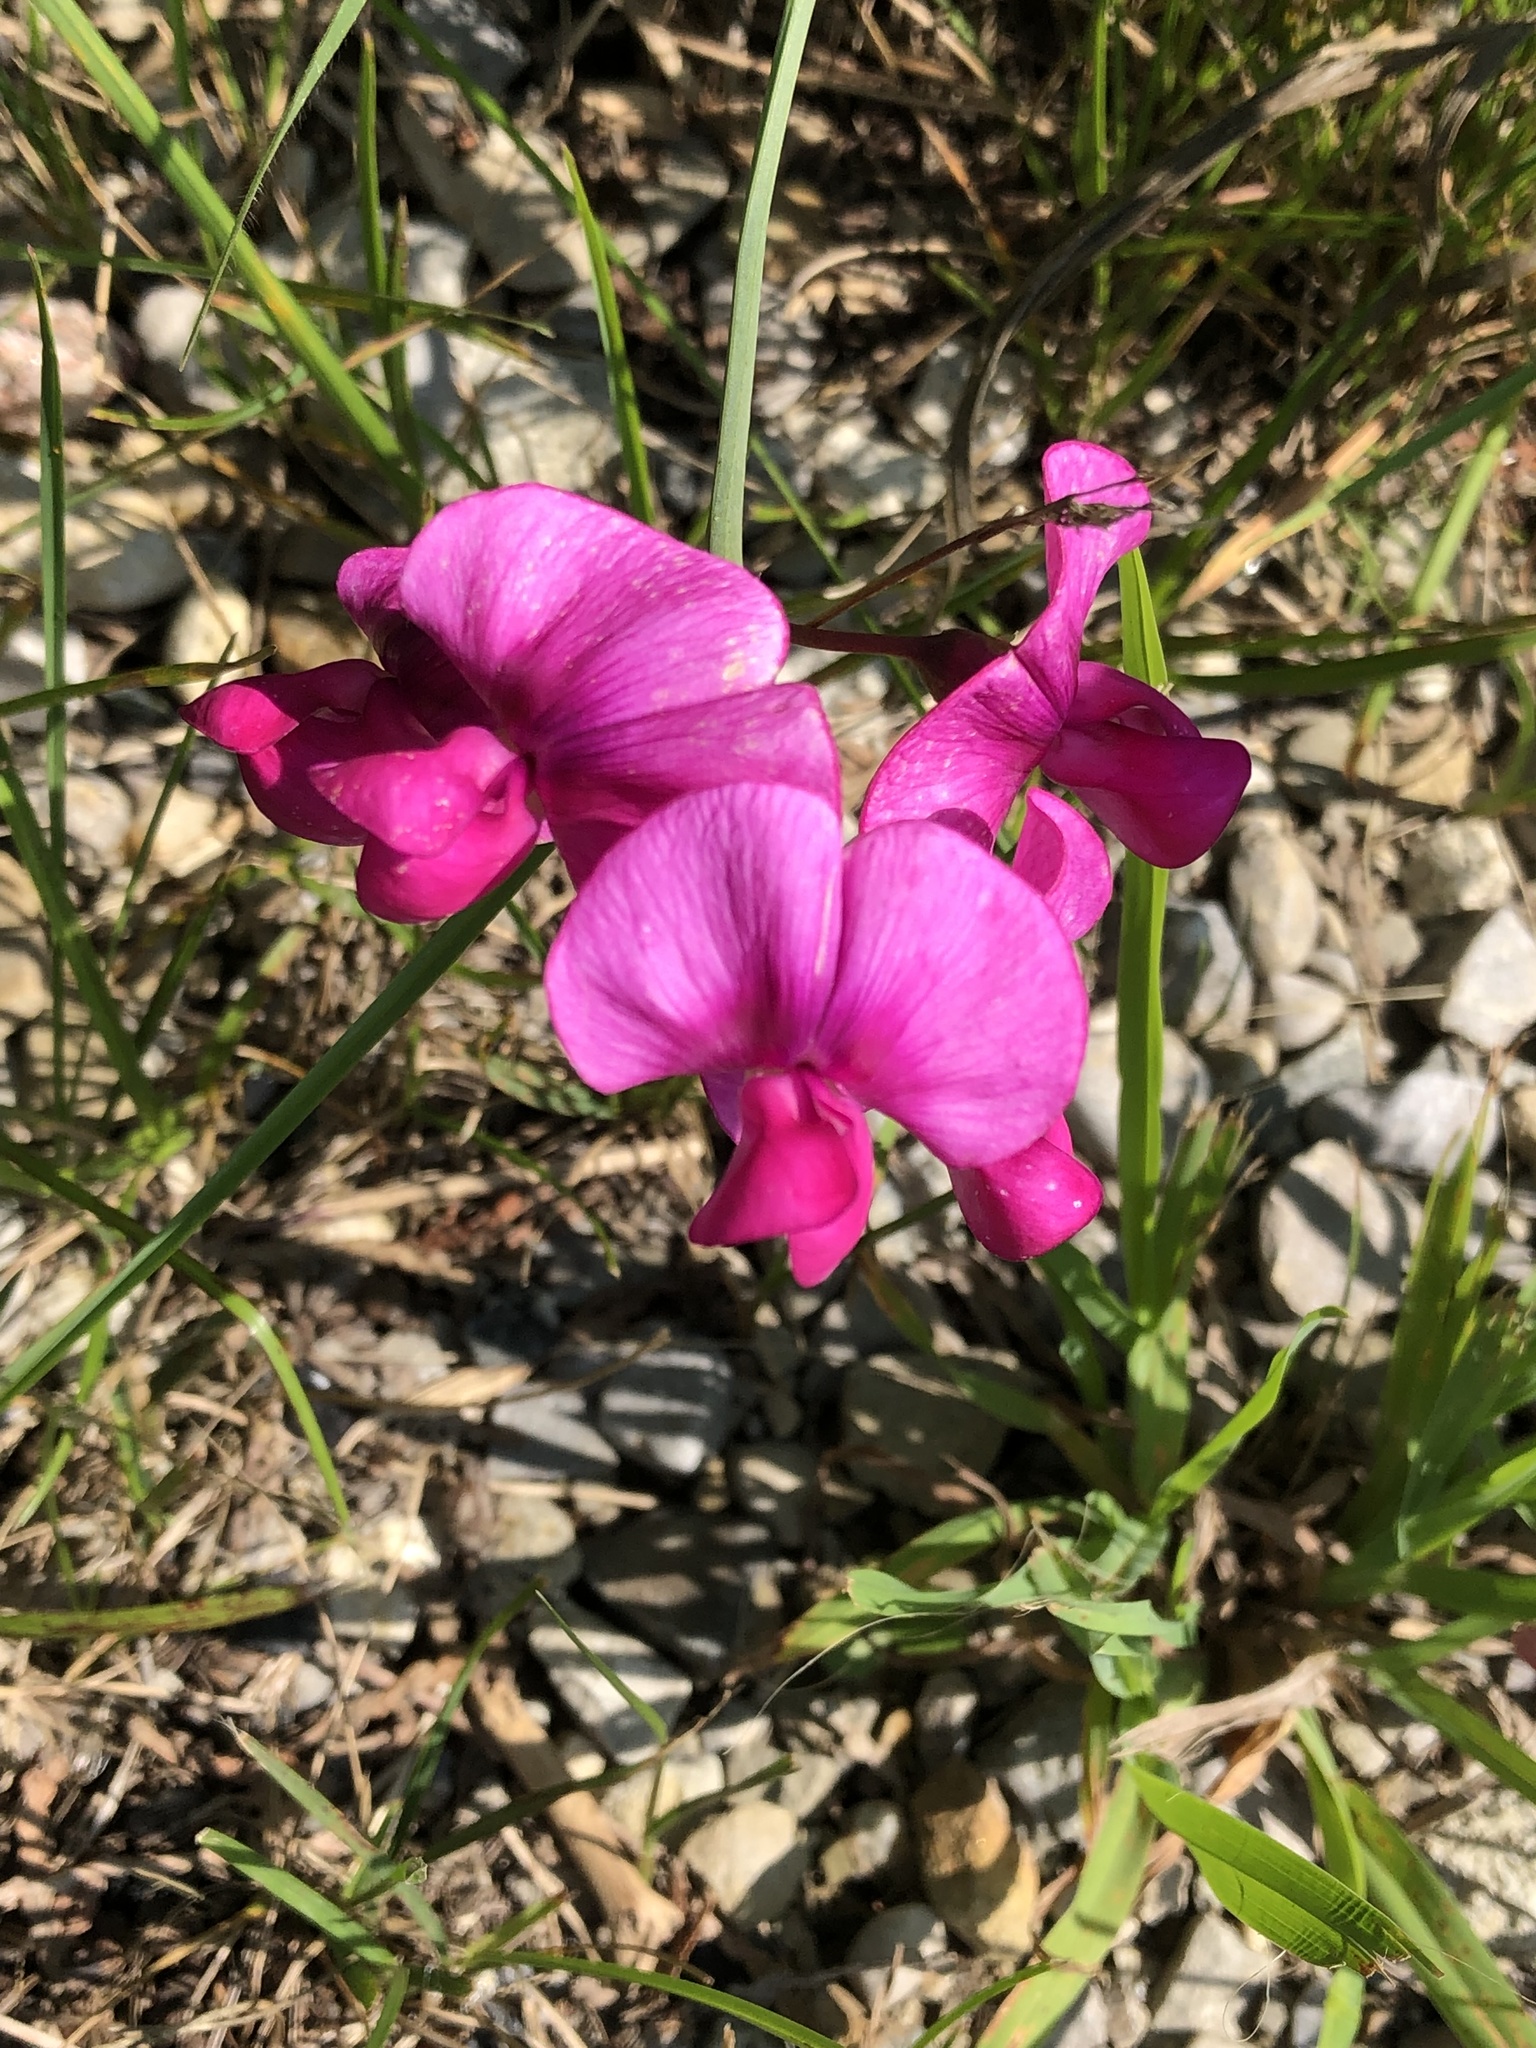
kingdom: Plantae
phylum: Tracheophyta
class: Magnoliopsida
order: Fabales
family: Fabaceae
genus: Lathyrus
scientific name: Lathyrus latifolius
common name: Perennial pea
